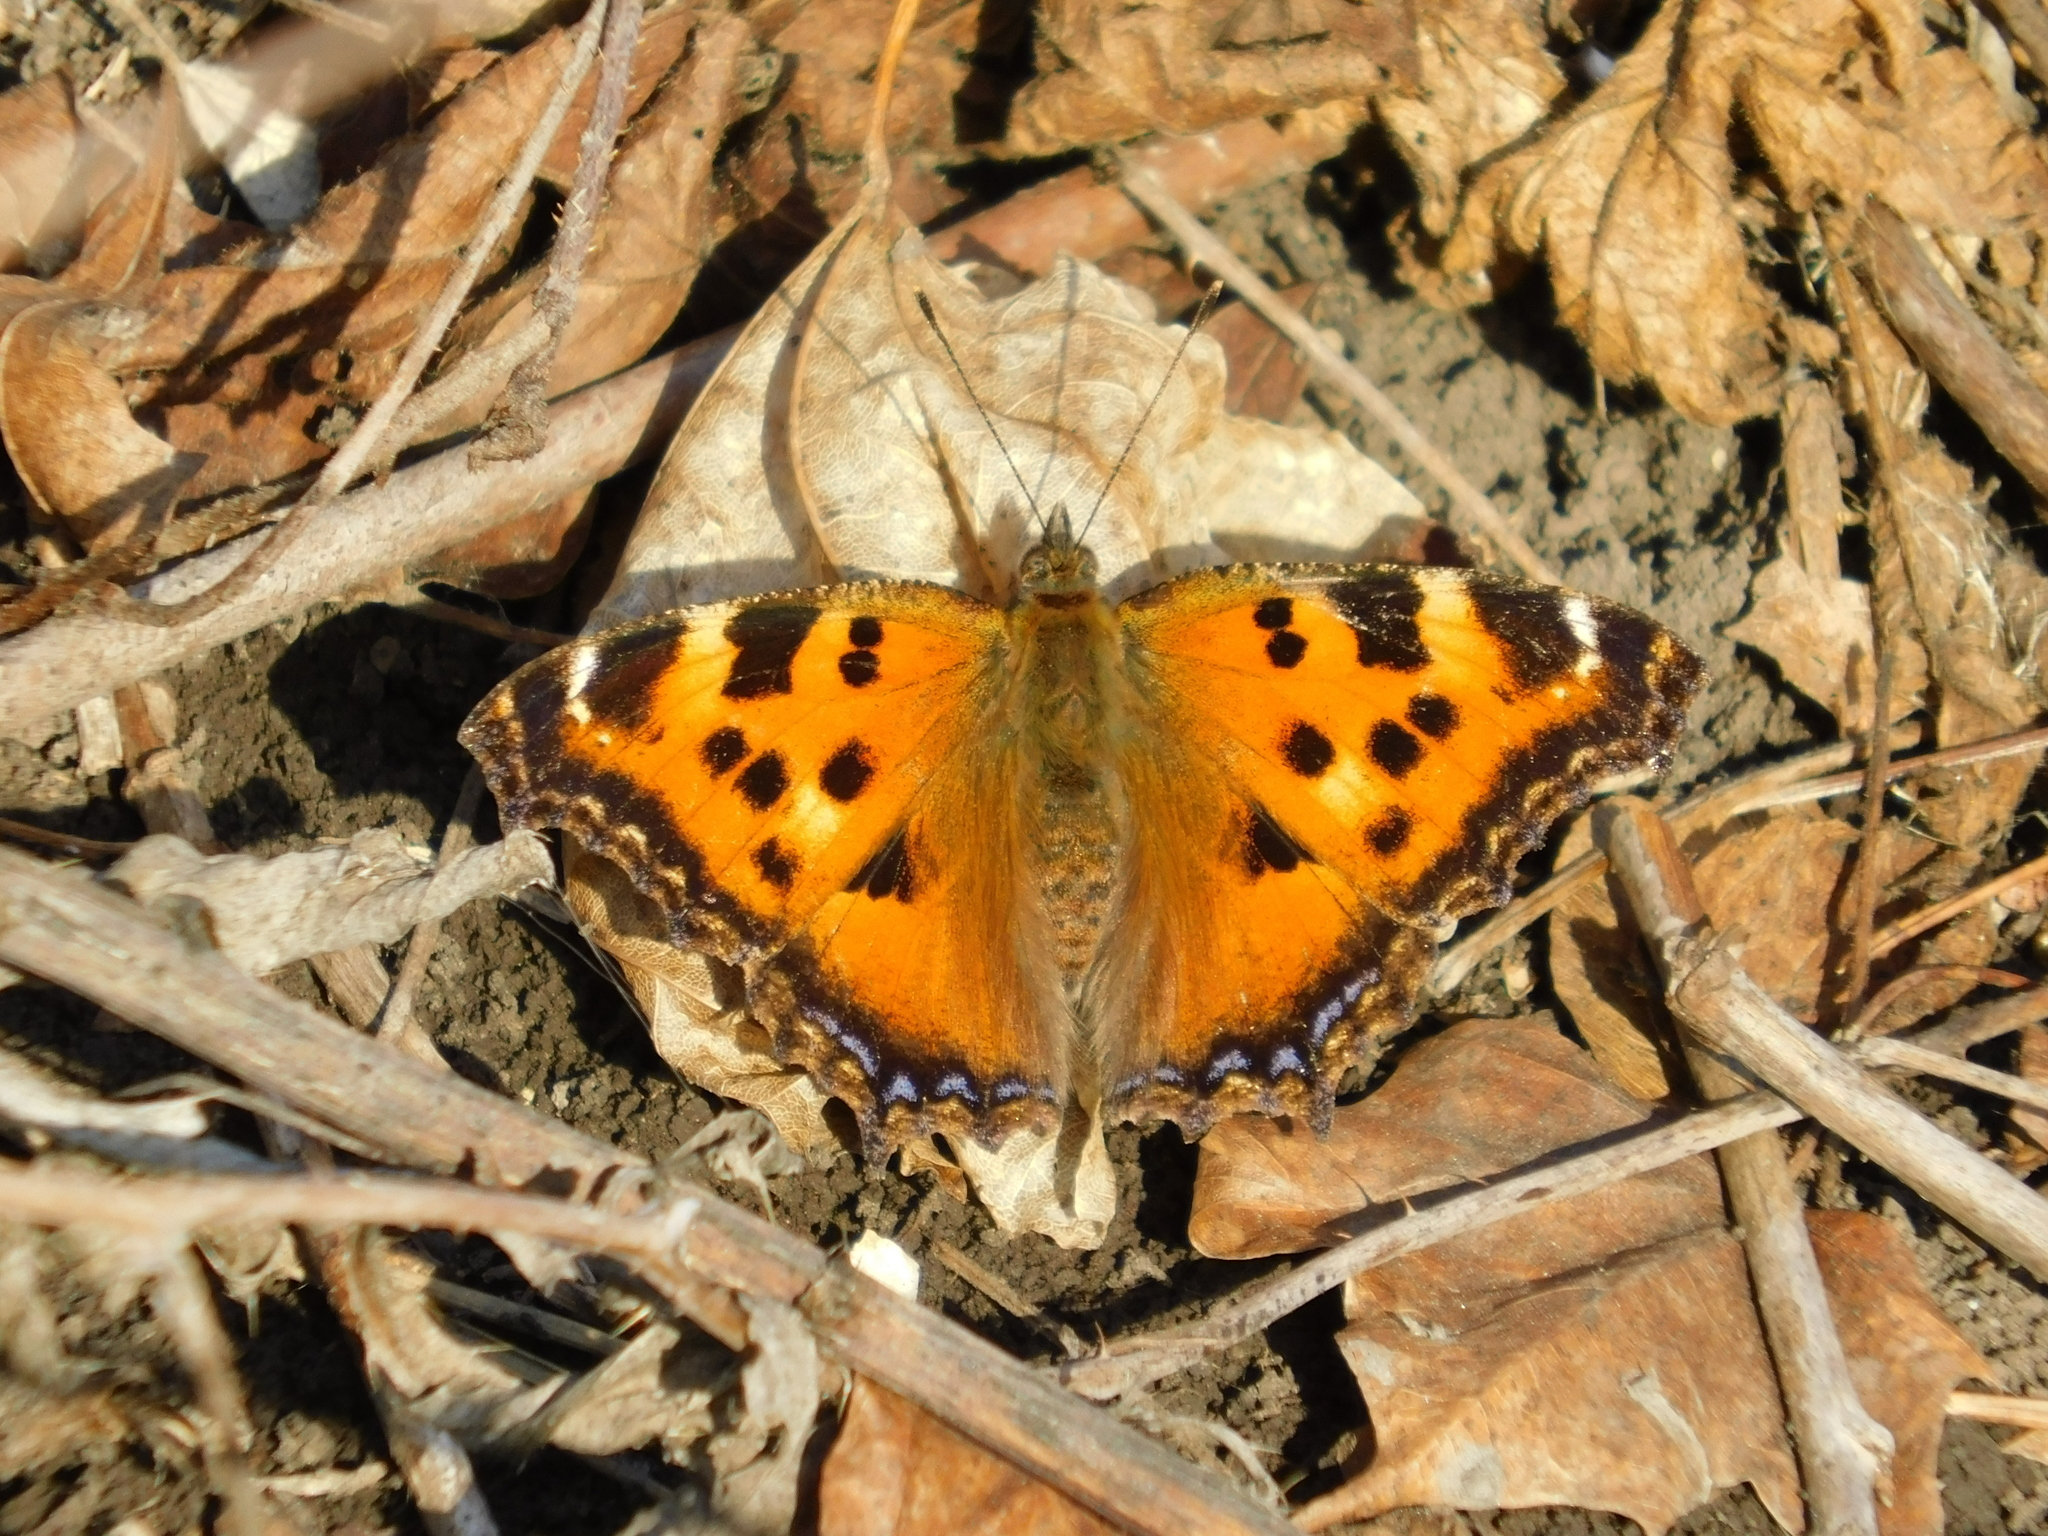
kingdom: Animalia
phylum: Arthropoda
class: Insecta
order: Lepidoptera
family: Nymphalidae
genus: Nymphalis
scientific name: Nymphalis xanthomelas
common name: Scarce tortoiseshell
